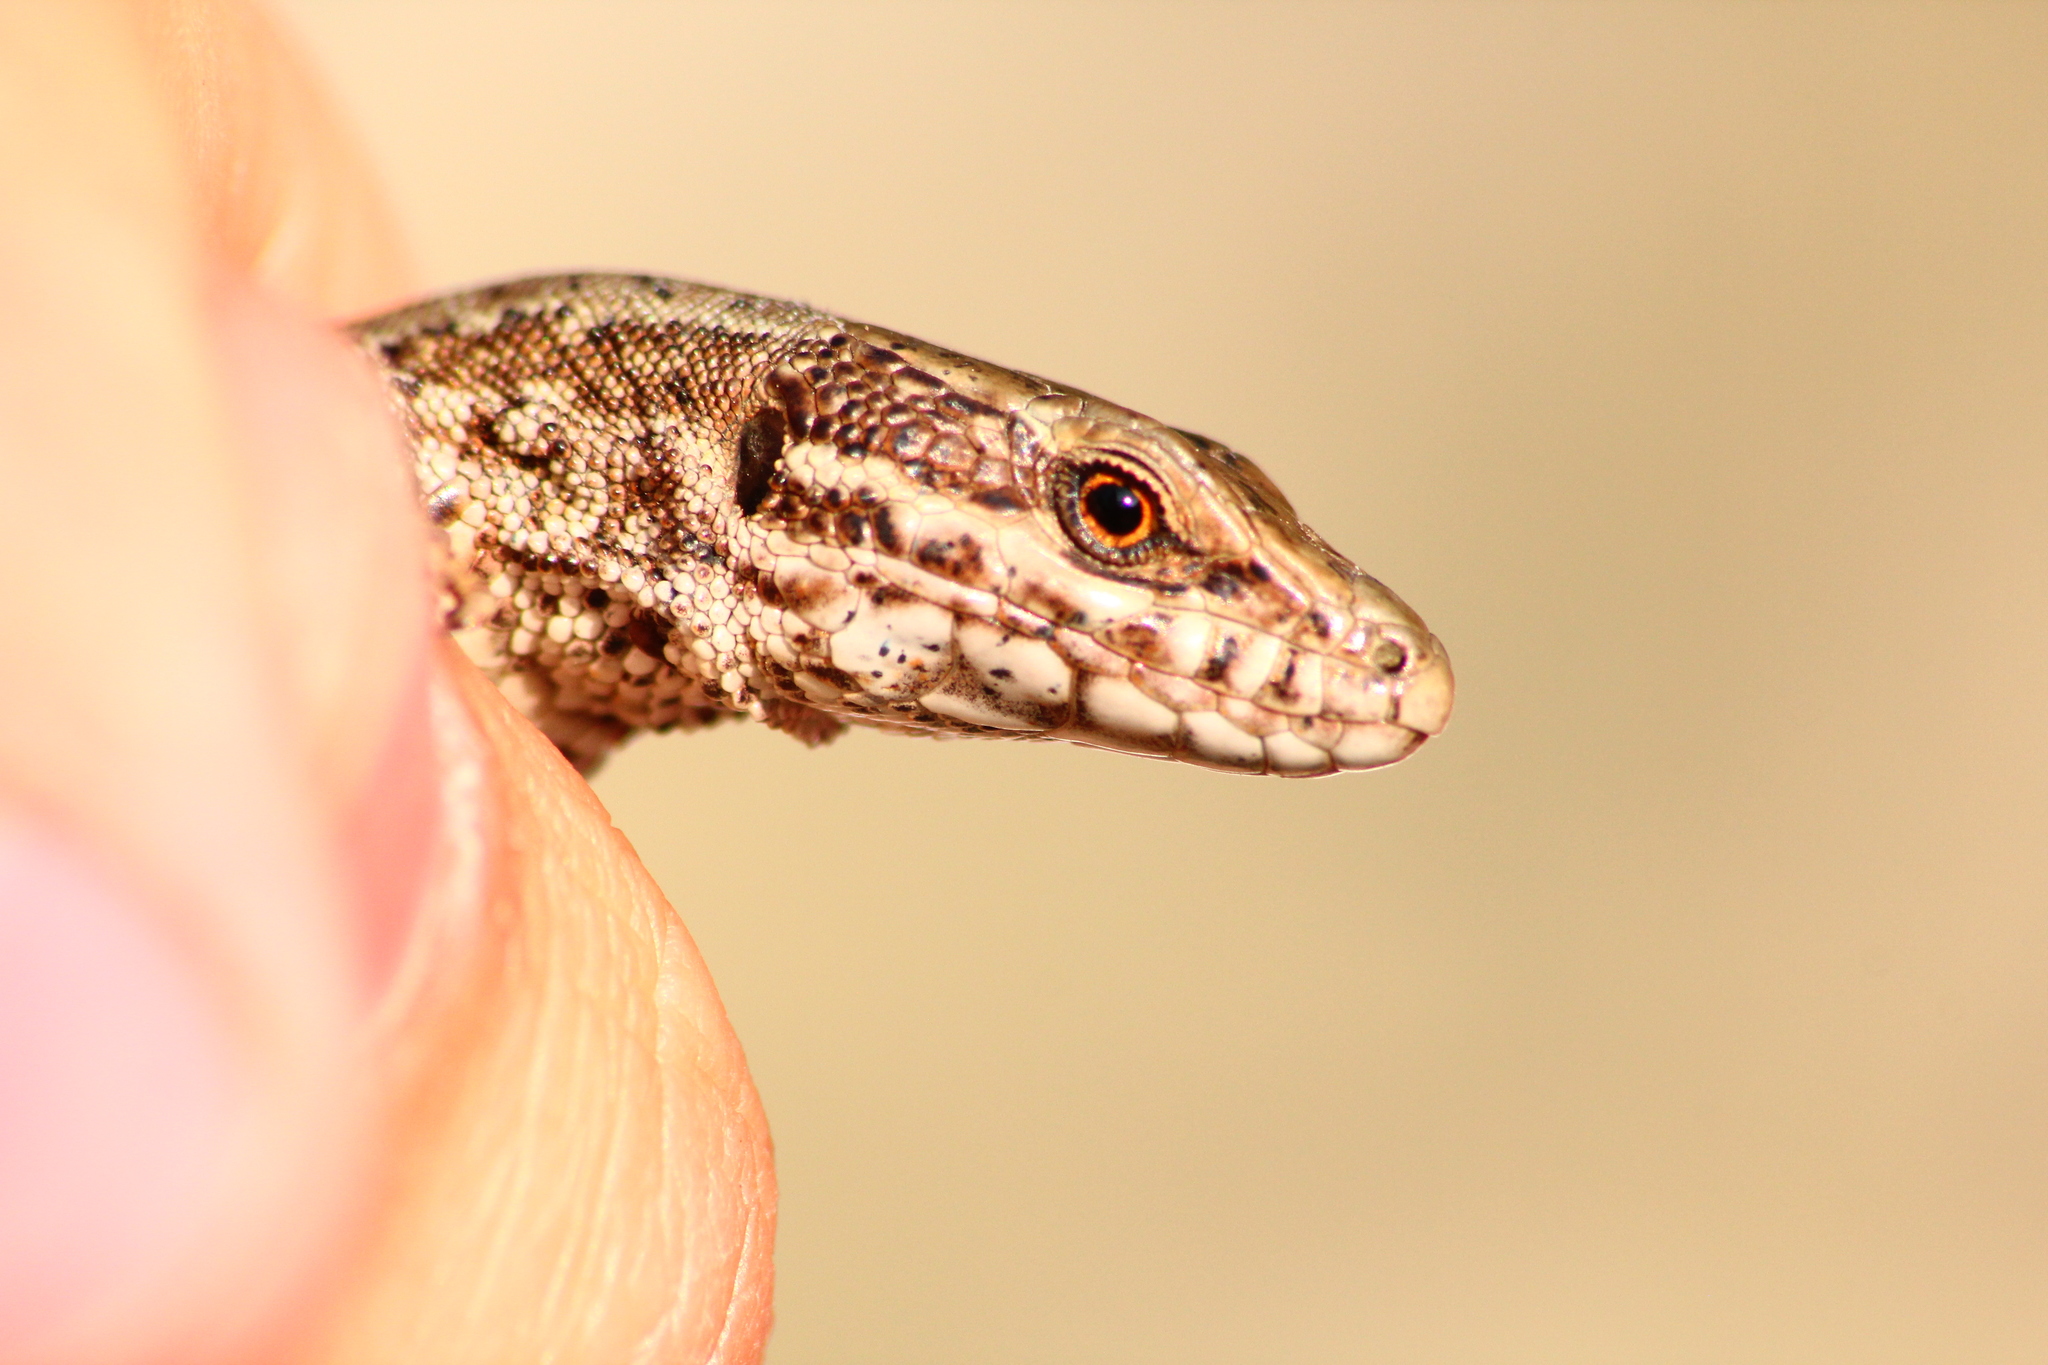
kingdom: Animalia
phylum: Chordata
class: Squamata
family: Lacertidae
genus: Podarcis
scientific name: Podarcis muralis
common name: Common wall lizard
